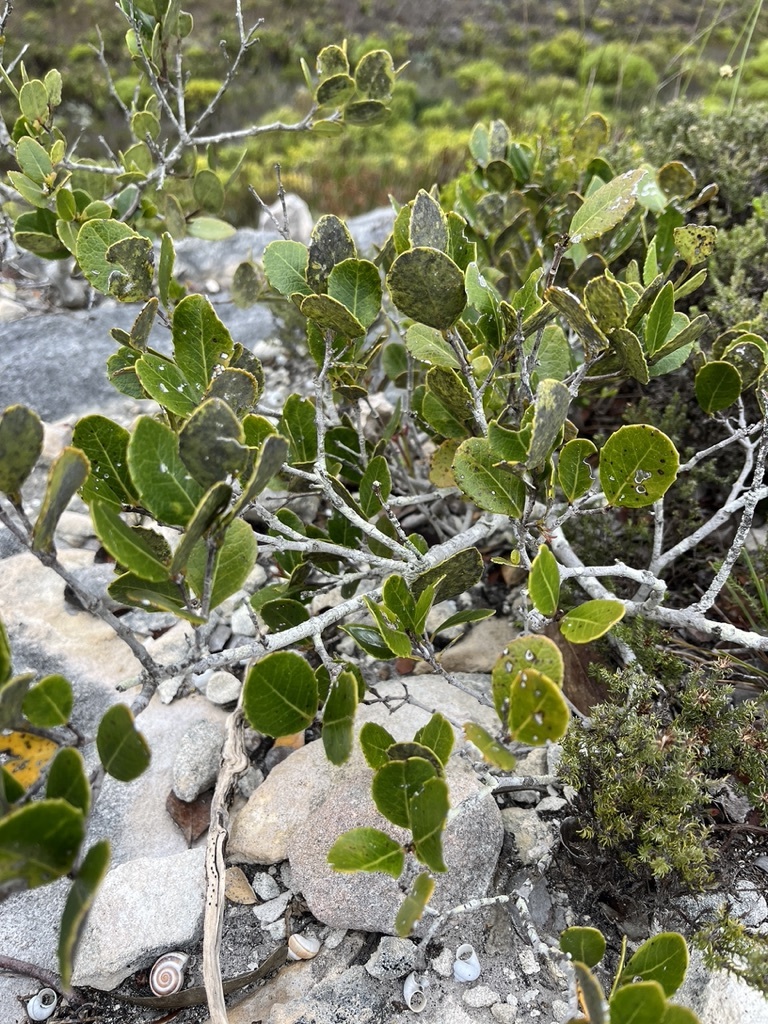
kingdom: Plantae
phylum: Tracheophyta
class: Magnoliopsida
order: Celastrales
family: Celastraceae
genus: Cassine
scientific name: Cassine peragua
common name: Cape saffron
